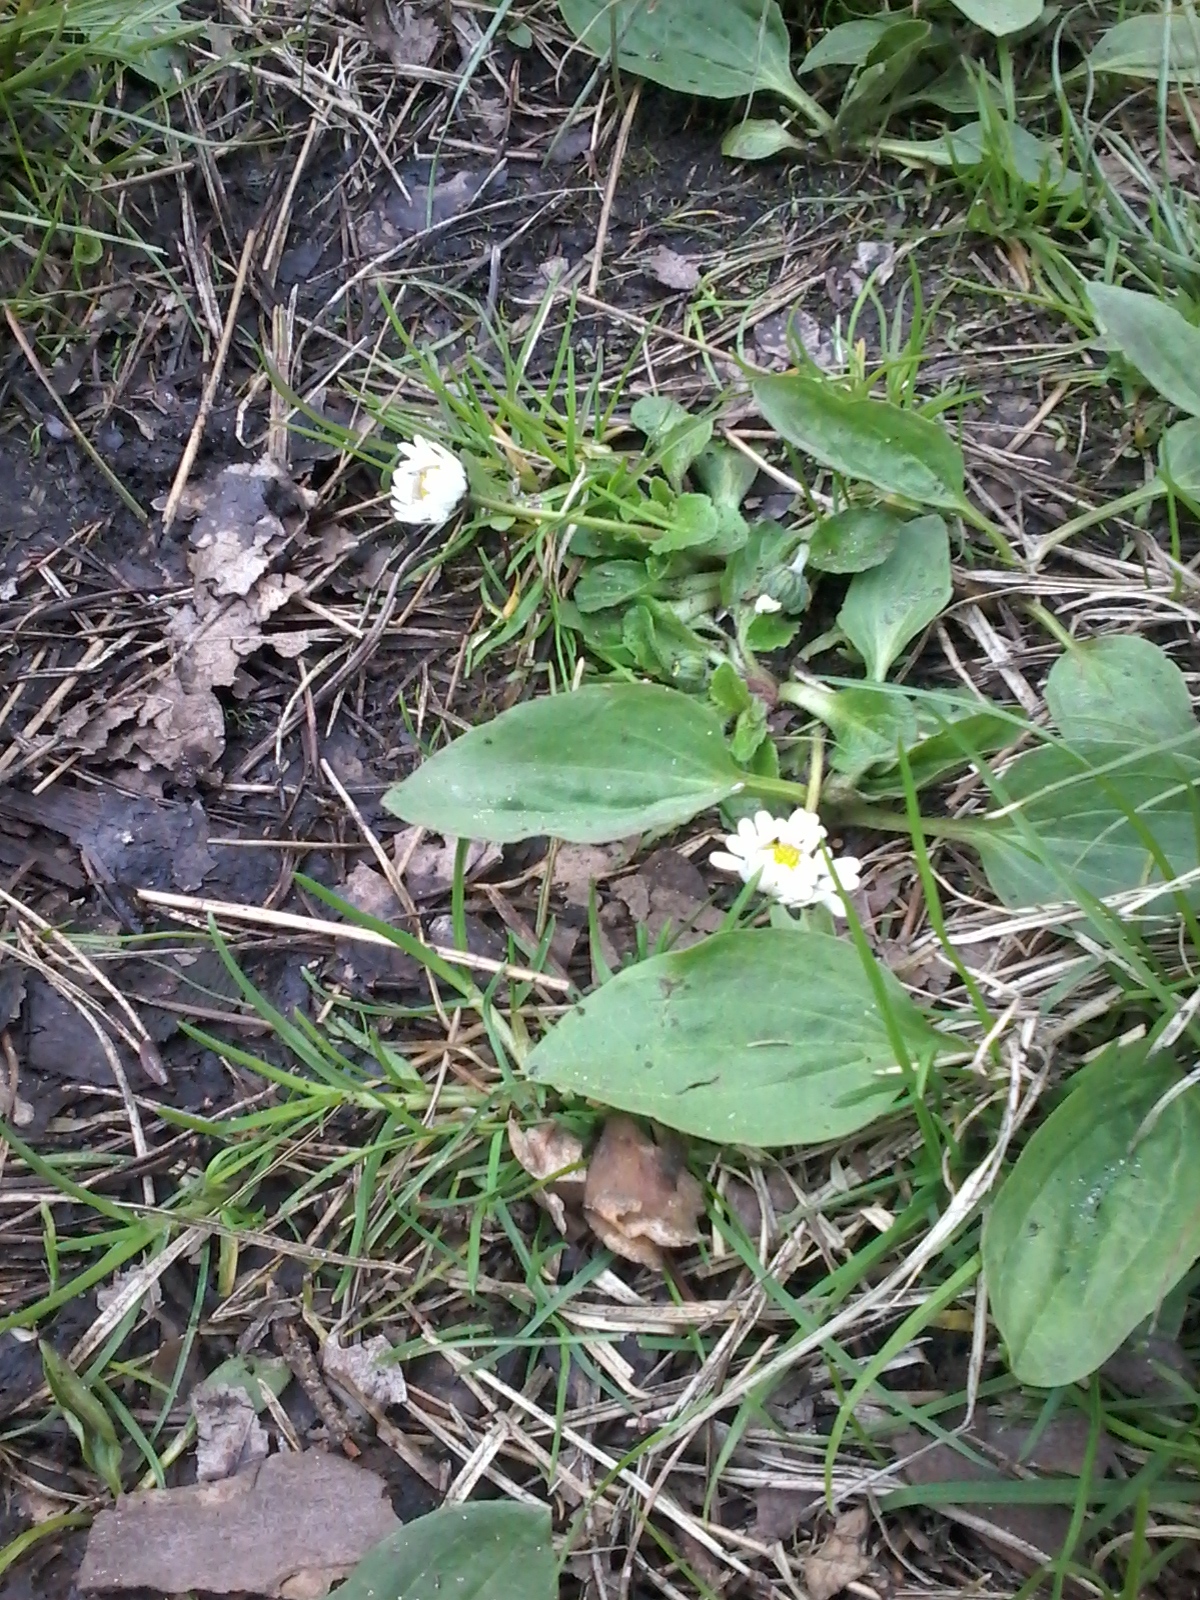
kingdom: Plantae
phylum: Tracheophyta
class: Magnoliopsida
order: Asterales
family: Asteraceae
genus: Bellis
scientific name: Bellis perennis
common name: Lawndaisy
